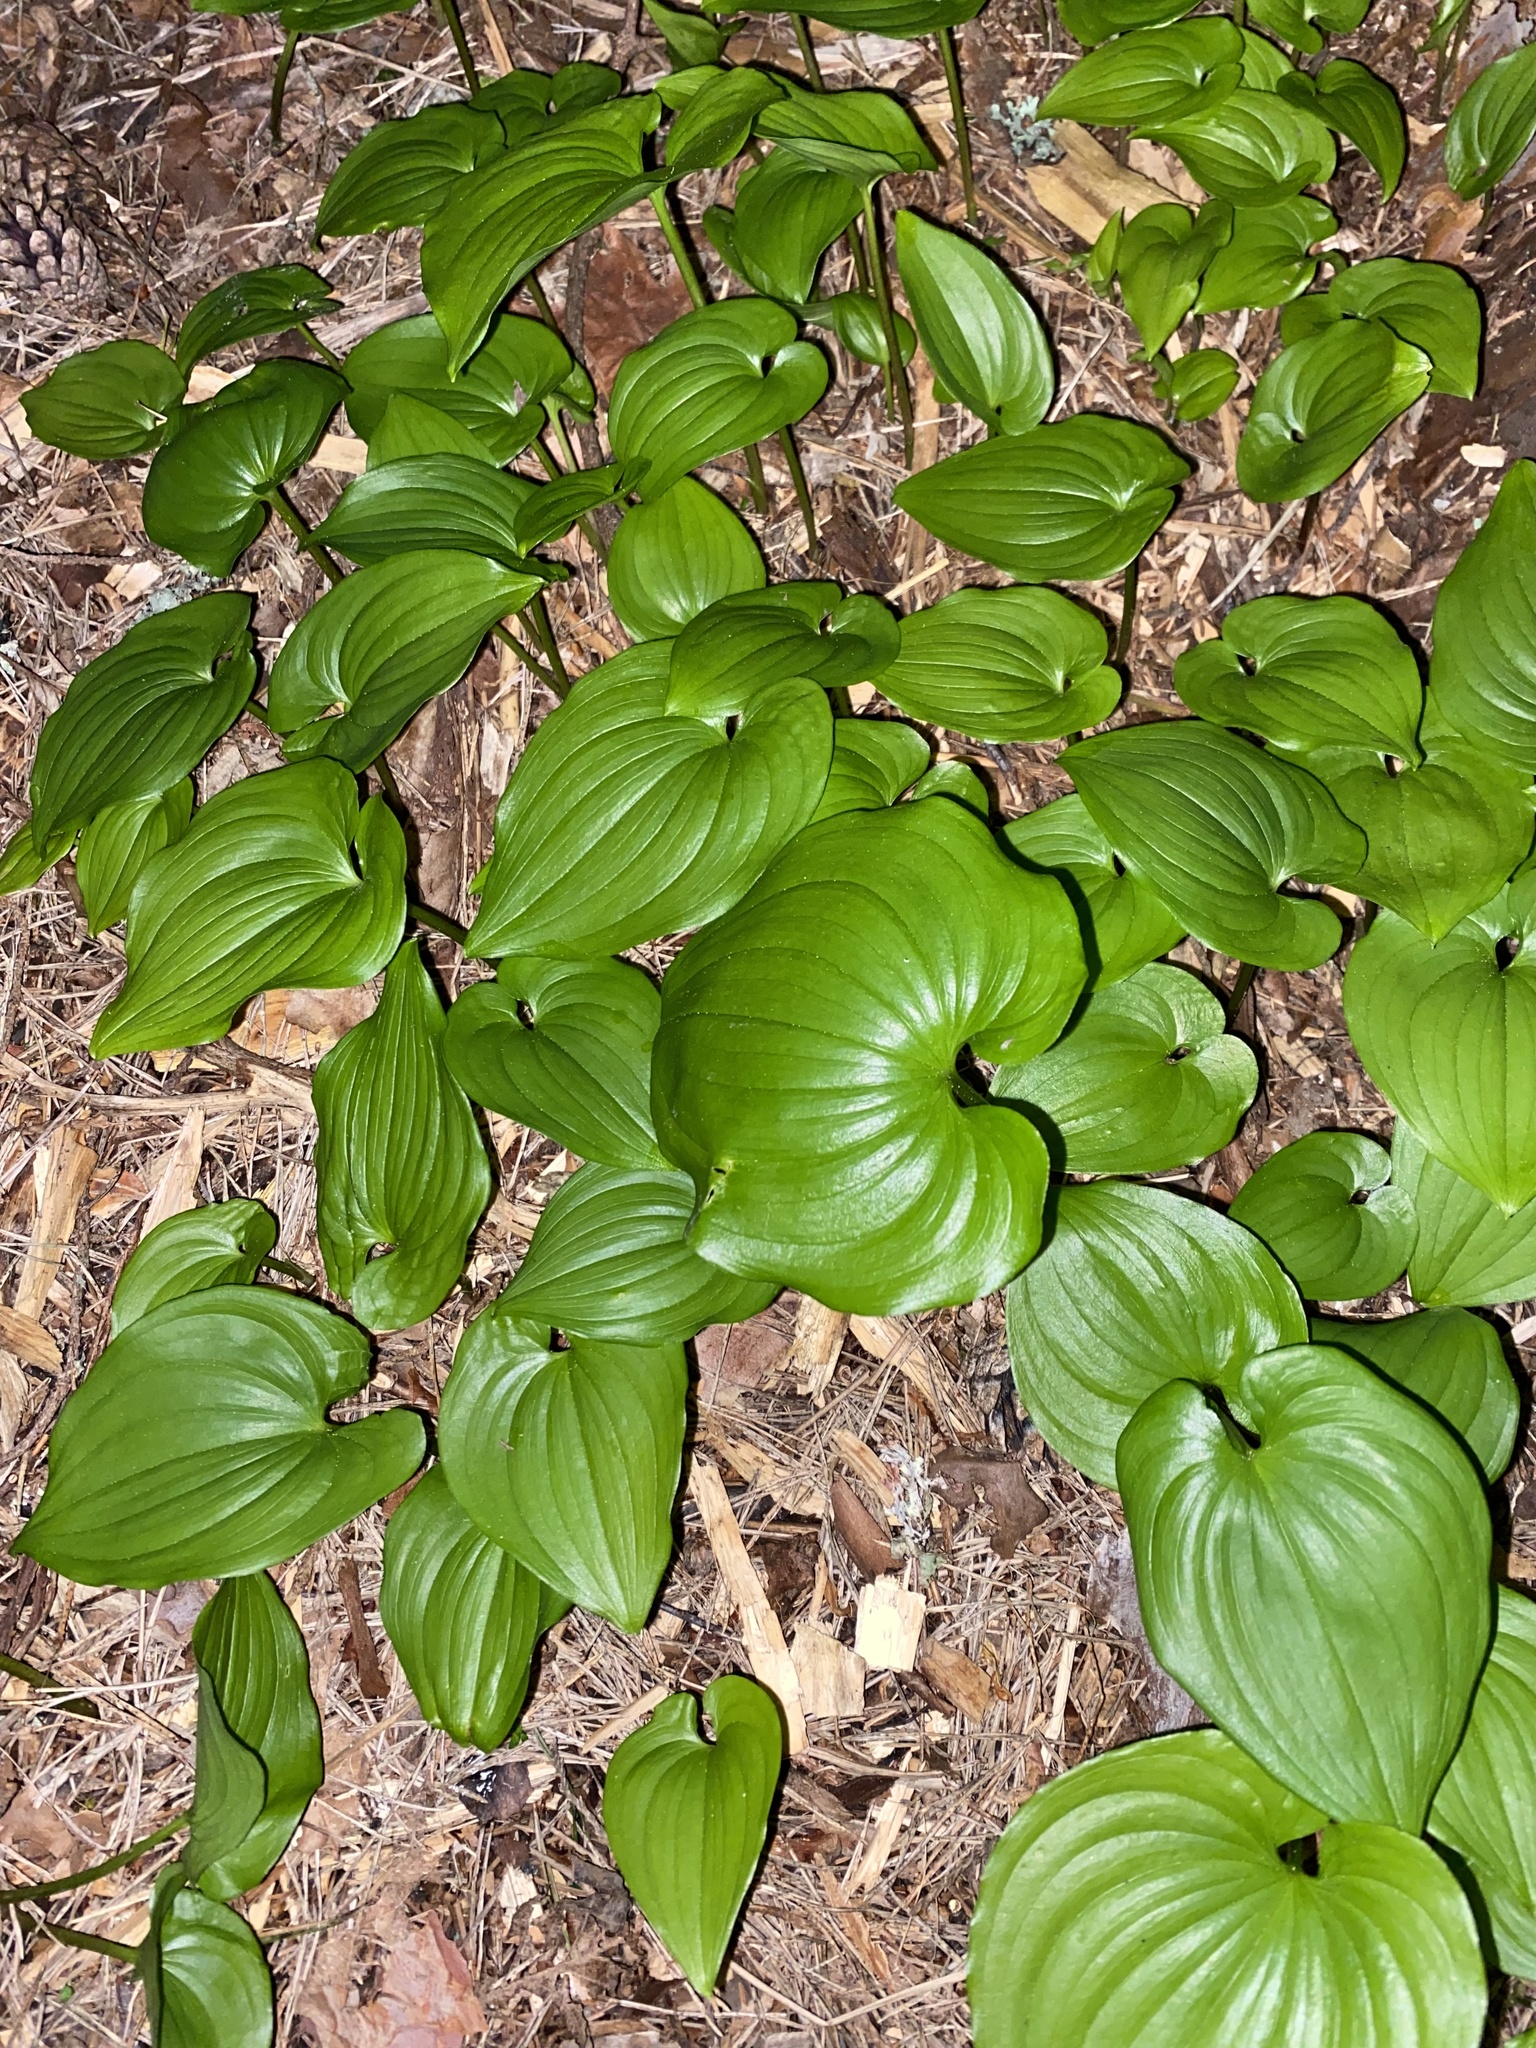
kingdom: Plantae
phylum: Tracheophyta
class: Liliopsida
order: Asparagales
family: Asparagaceae
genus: Maianthemum
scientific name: Maianthemum dilatatum
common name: False lily-of-the-valley
